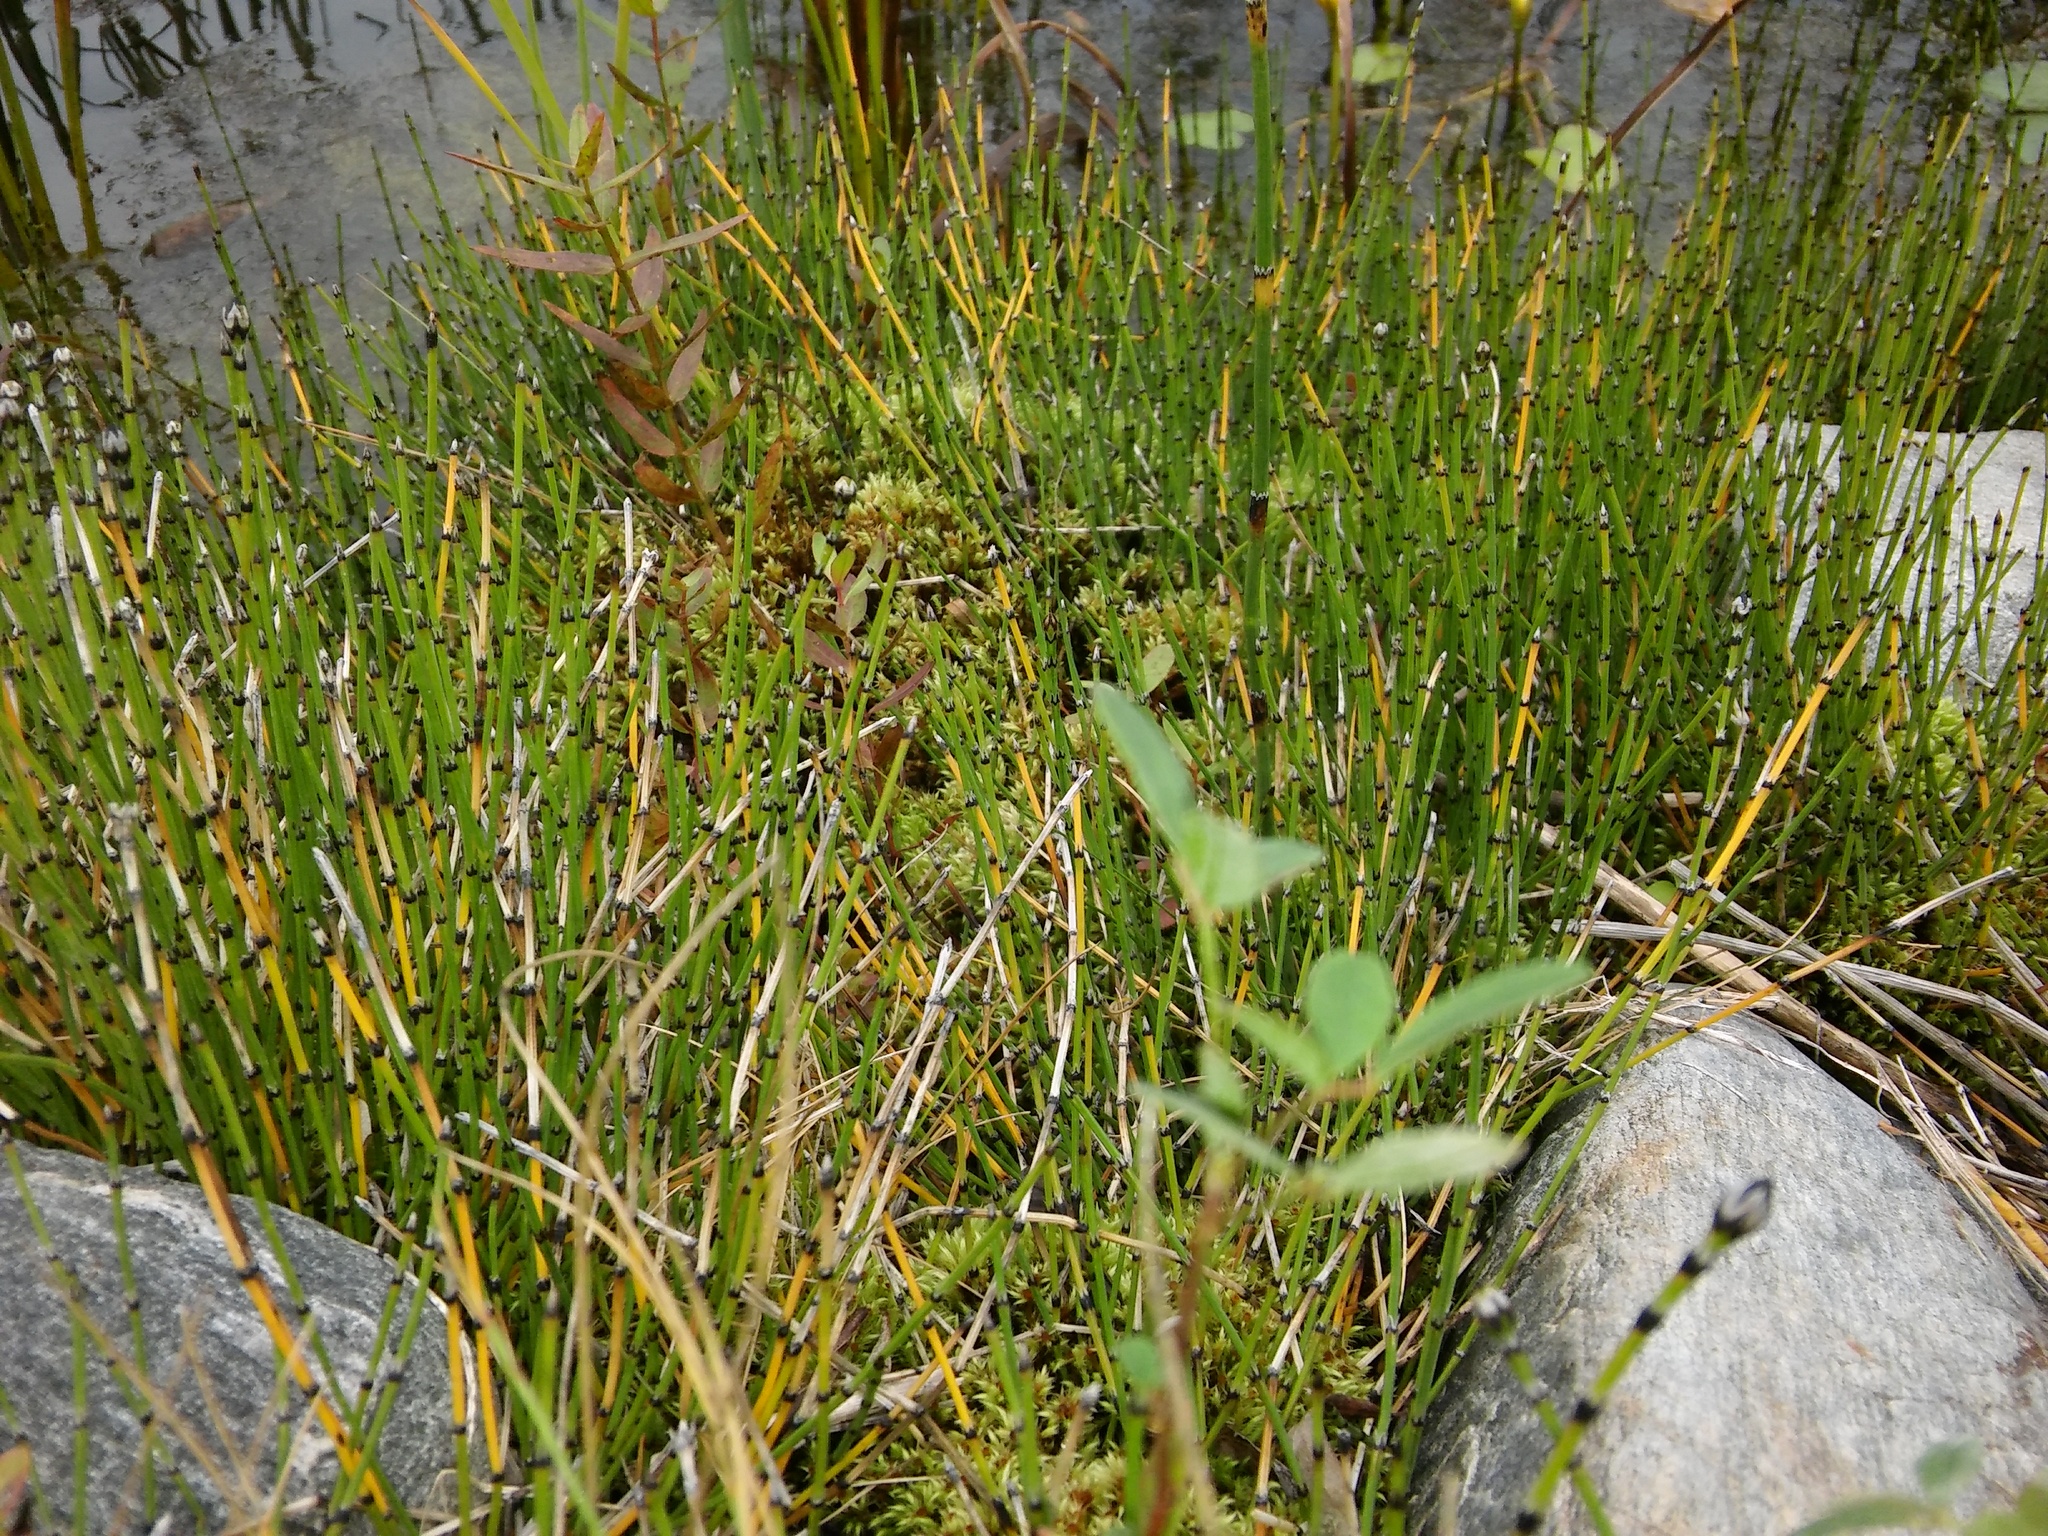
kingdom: Plantae
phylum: Tracheophyta
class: Polypodiopsida
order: Equisetales
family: Equisetaceae
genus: Equisetum
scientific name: Equisetum variegatum
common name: Variegated horsetail
